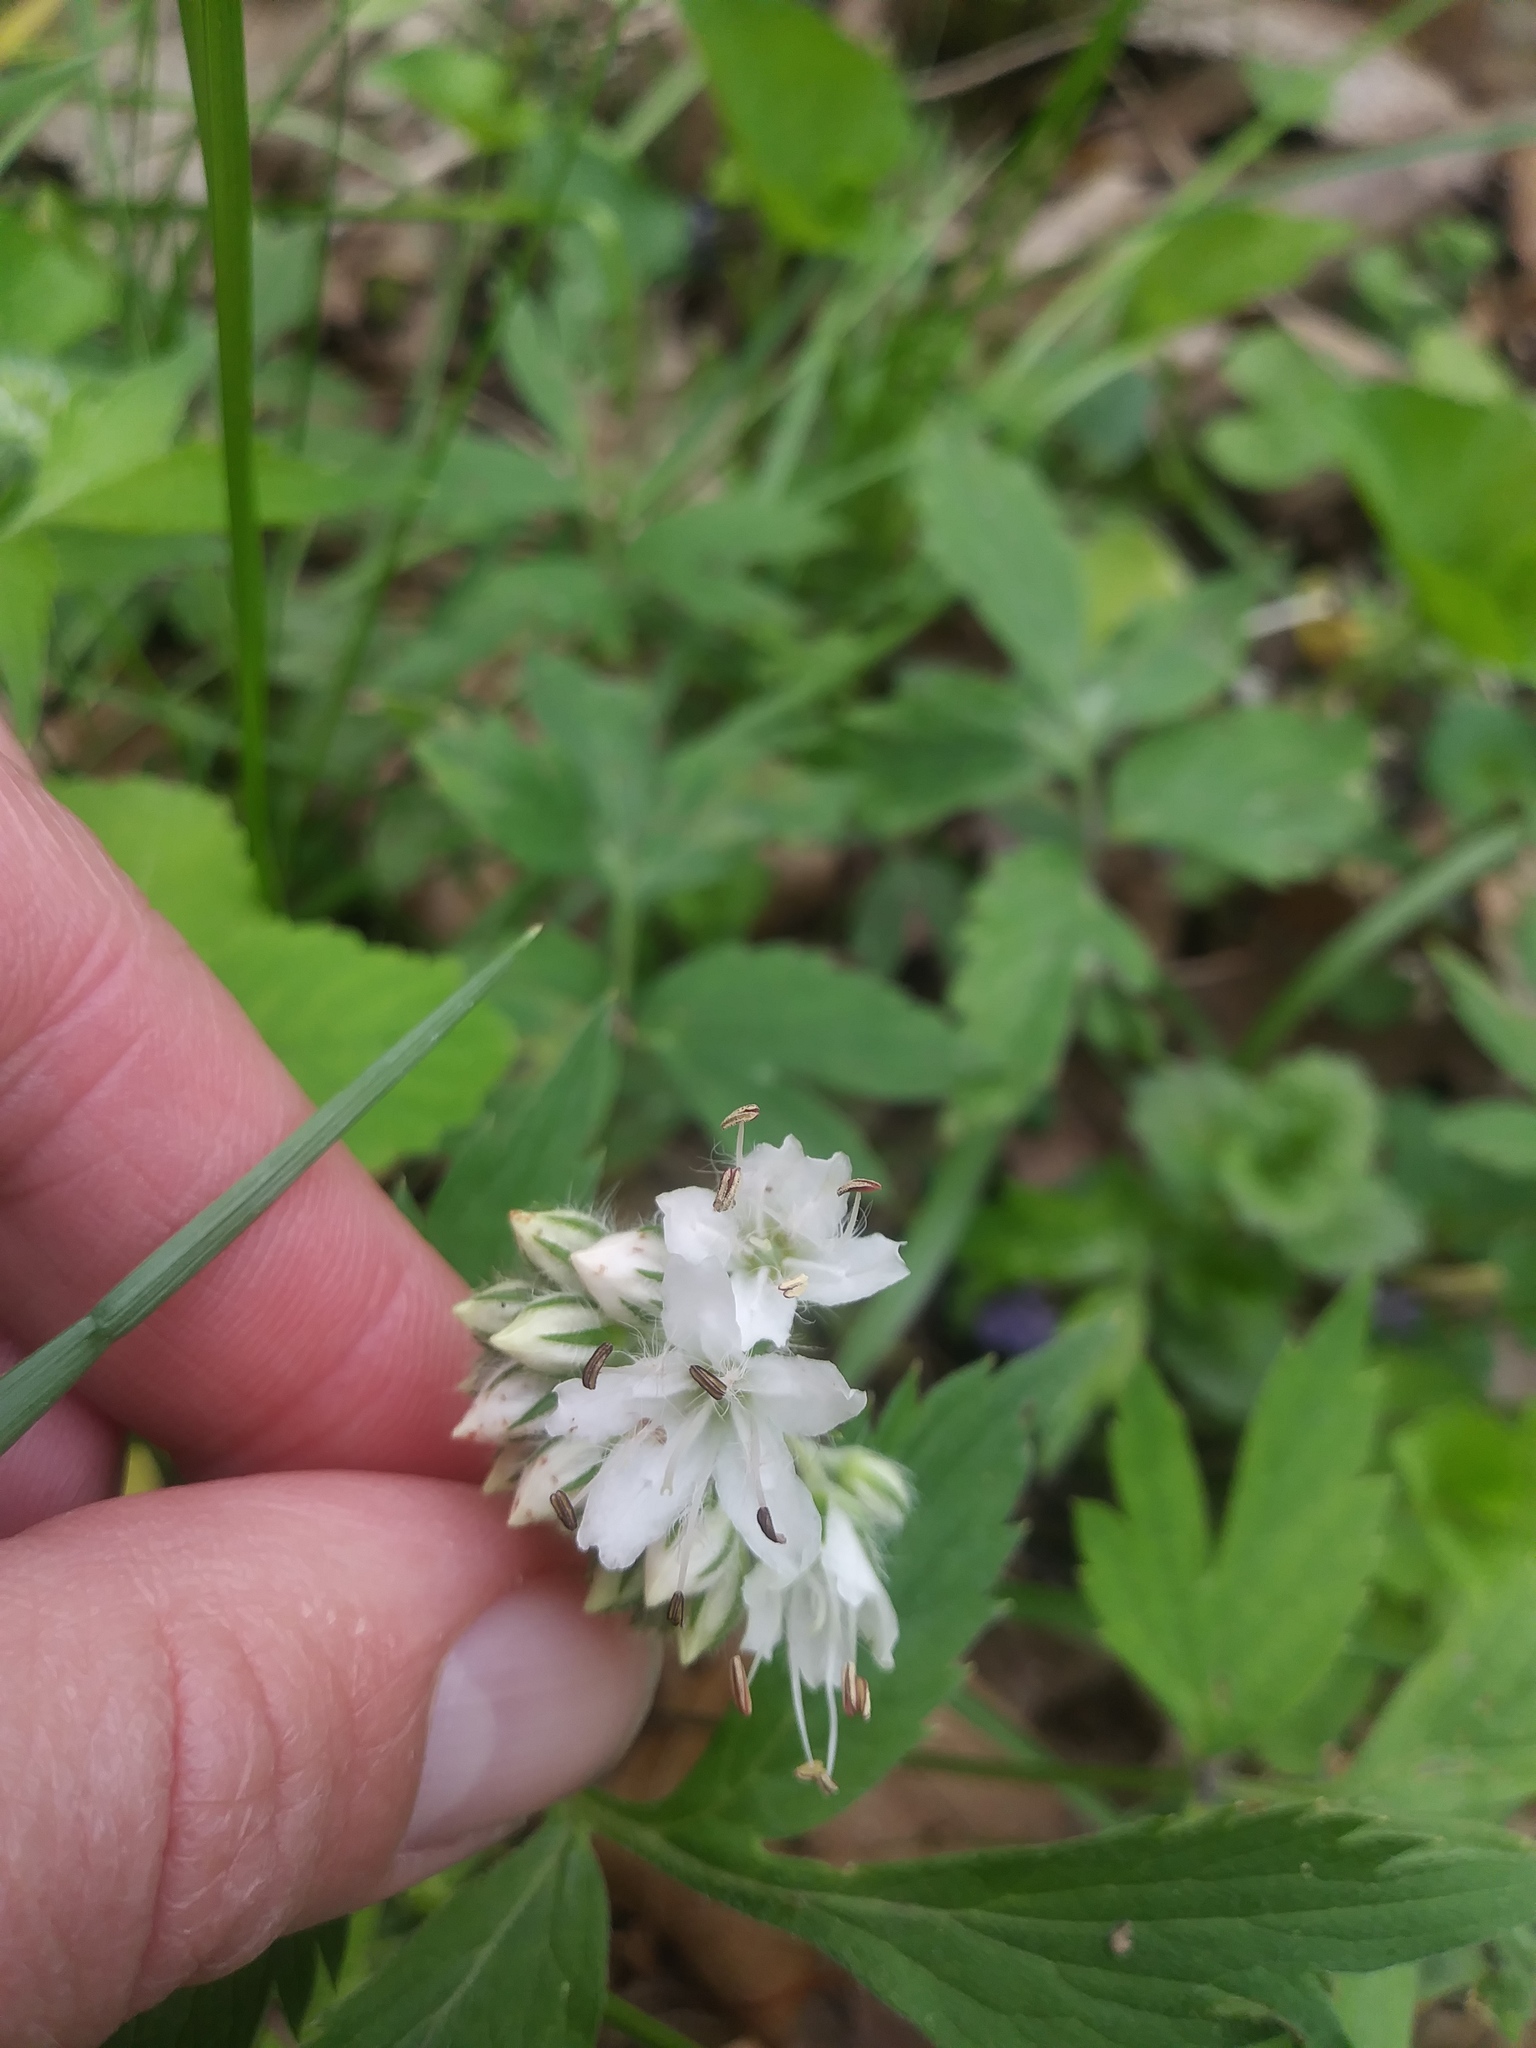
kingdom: Plantae
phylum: Tracheophyta
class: Magnoliopsida
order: Boraginales
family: Hydrophyllaceae
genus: Hydrophyllum
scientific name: Hydrophyllum virginianum
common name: Virginia waterleaf
